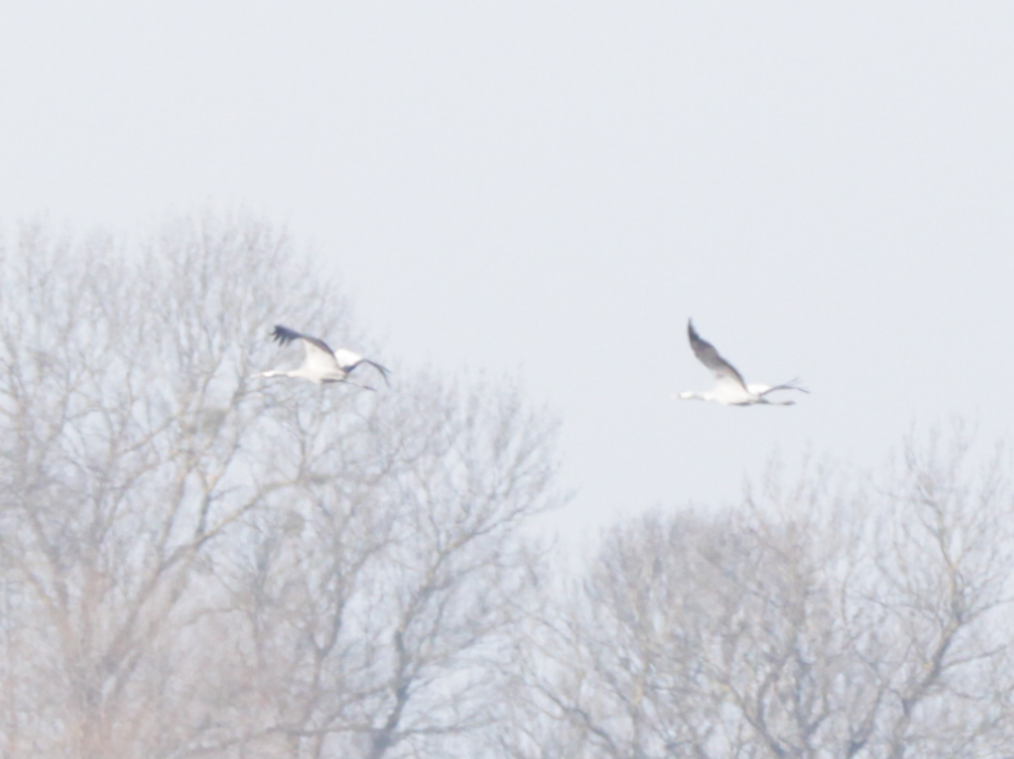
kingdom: Animalia
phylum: Chordata
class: Aves
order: Gruiformes
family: Gruidae
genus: Grus
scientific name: Grus grus
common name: Common crane
